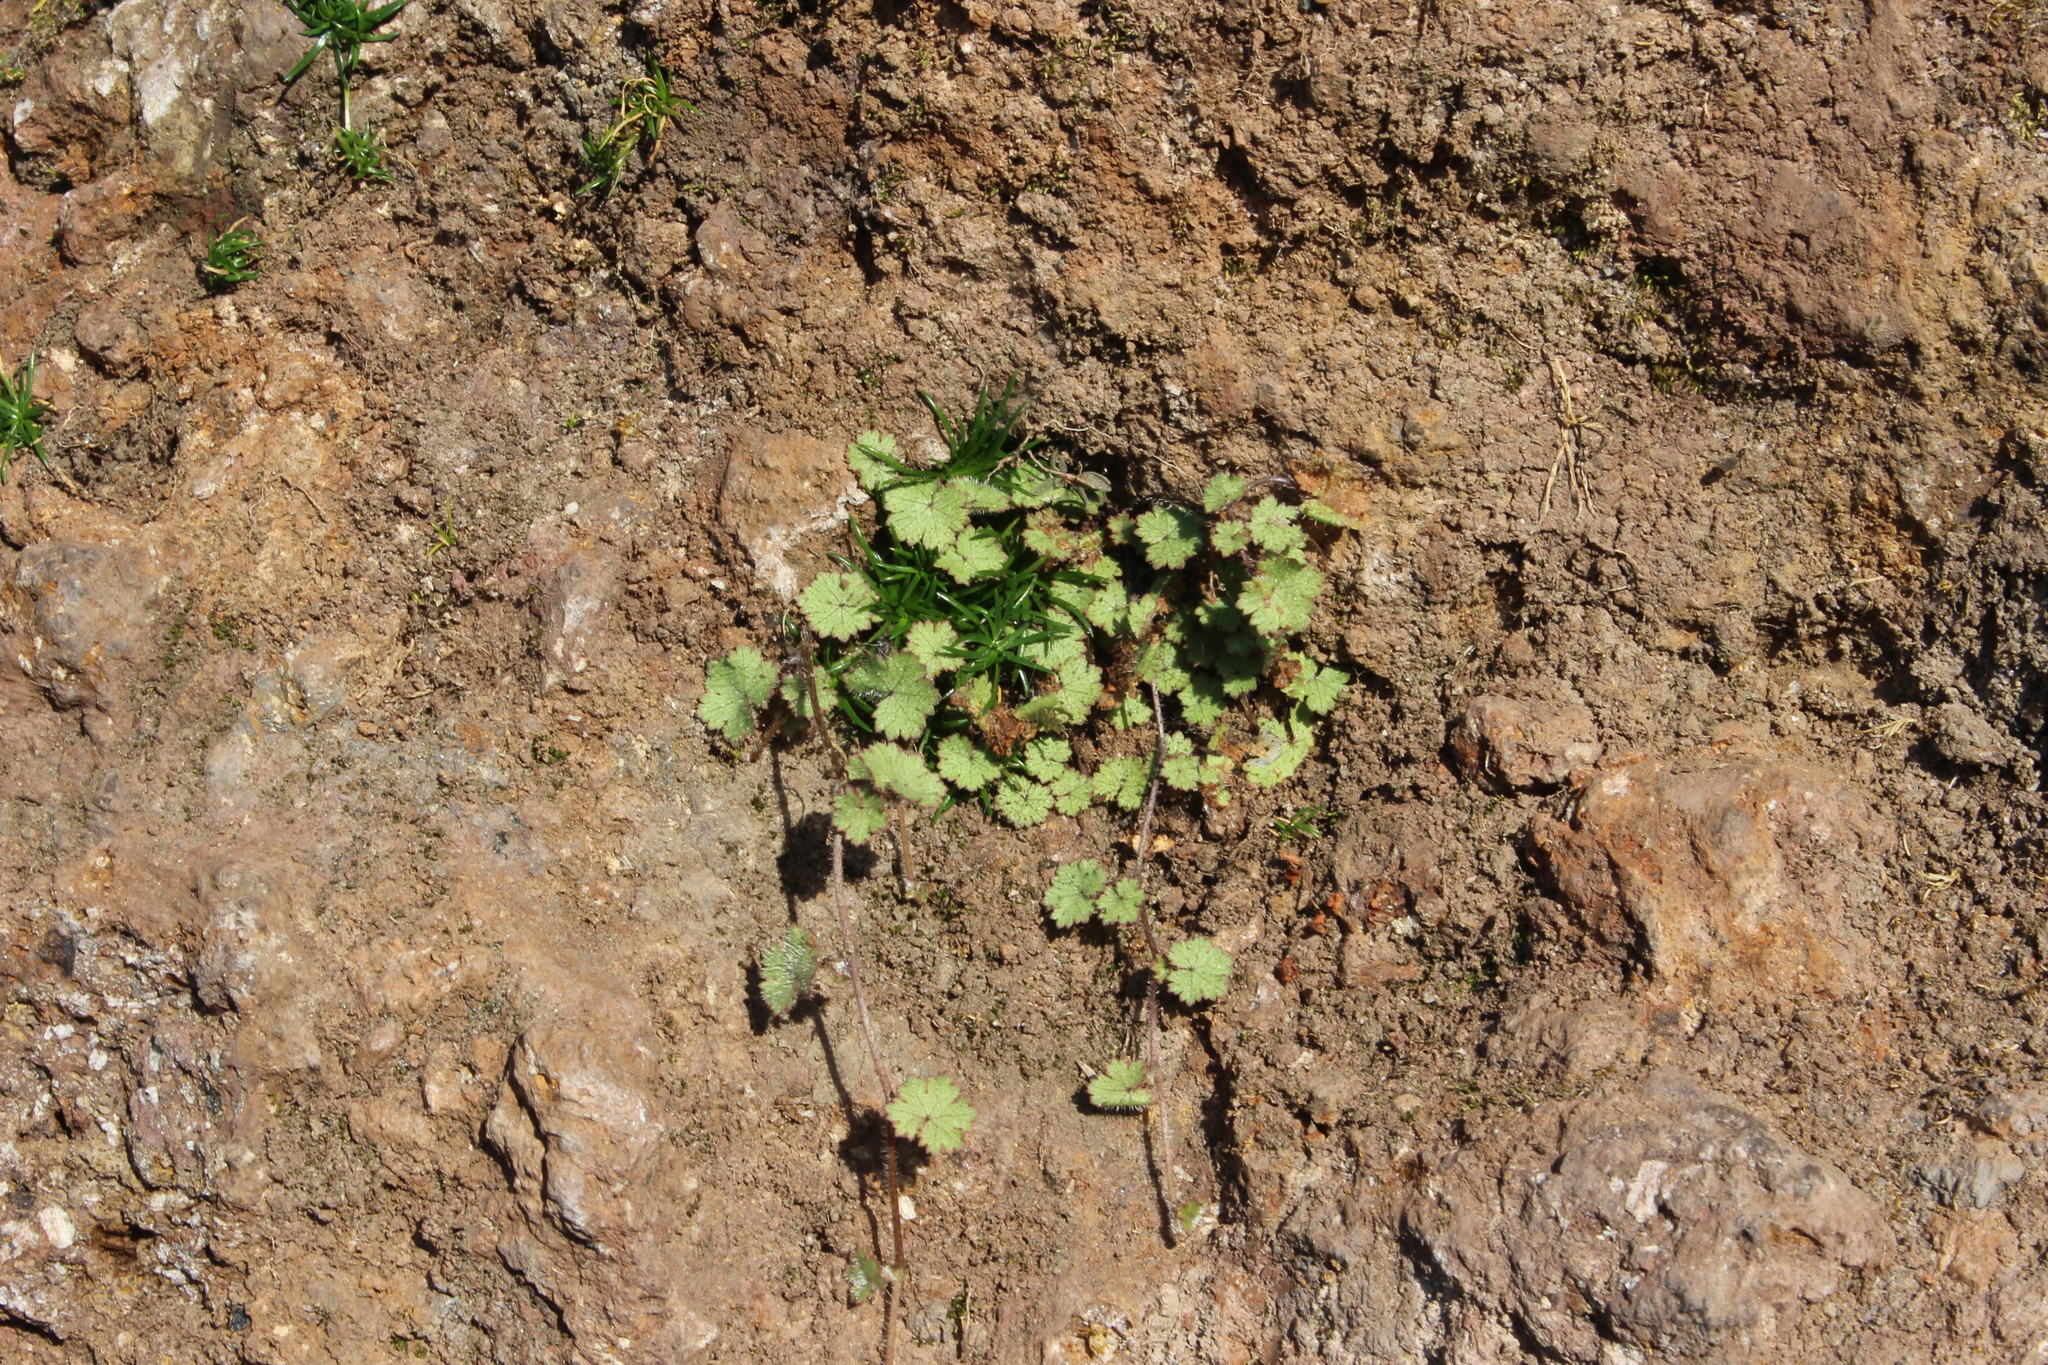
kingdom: Plantae
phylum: Tracheophyta
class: Magnoliopsida
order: Apiales
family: Araliaceae
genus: Hydrocotyle
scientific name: Hydrocotyle moschata
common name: Hairy pennywort
